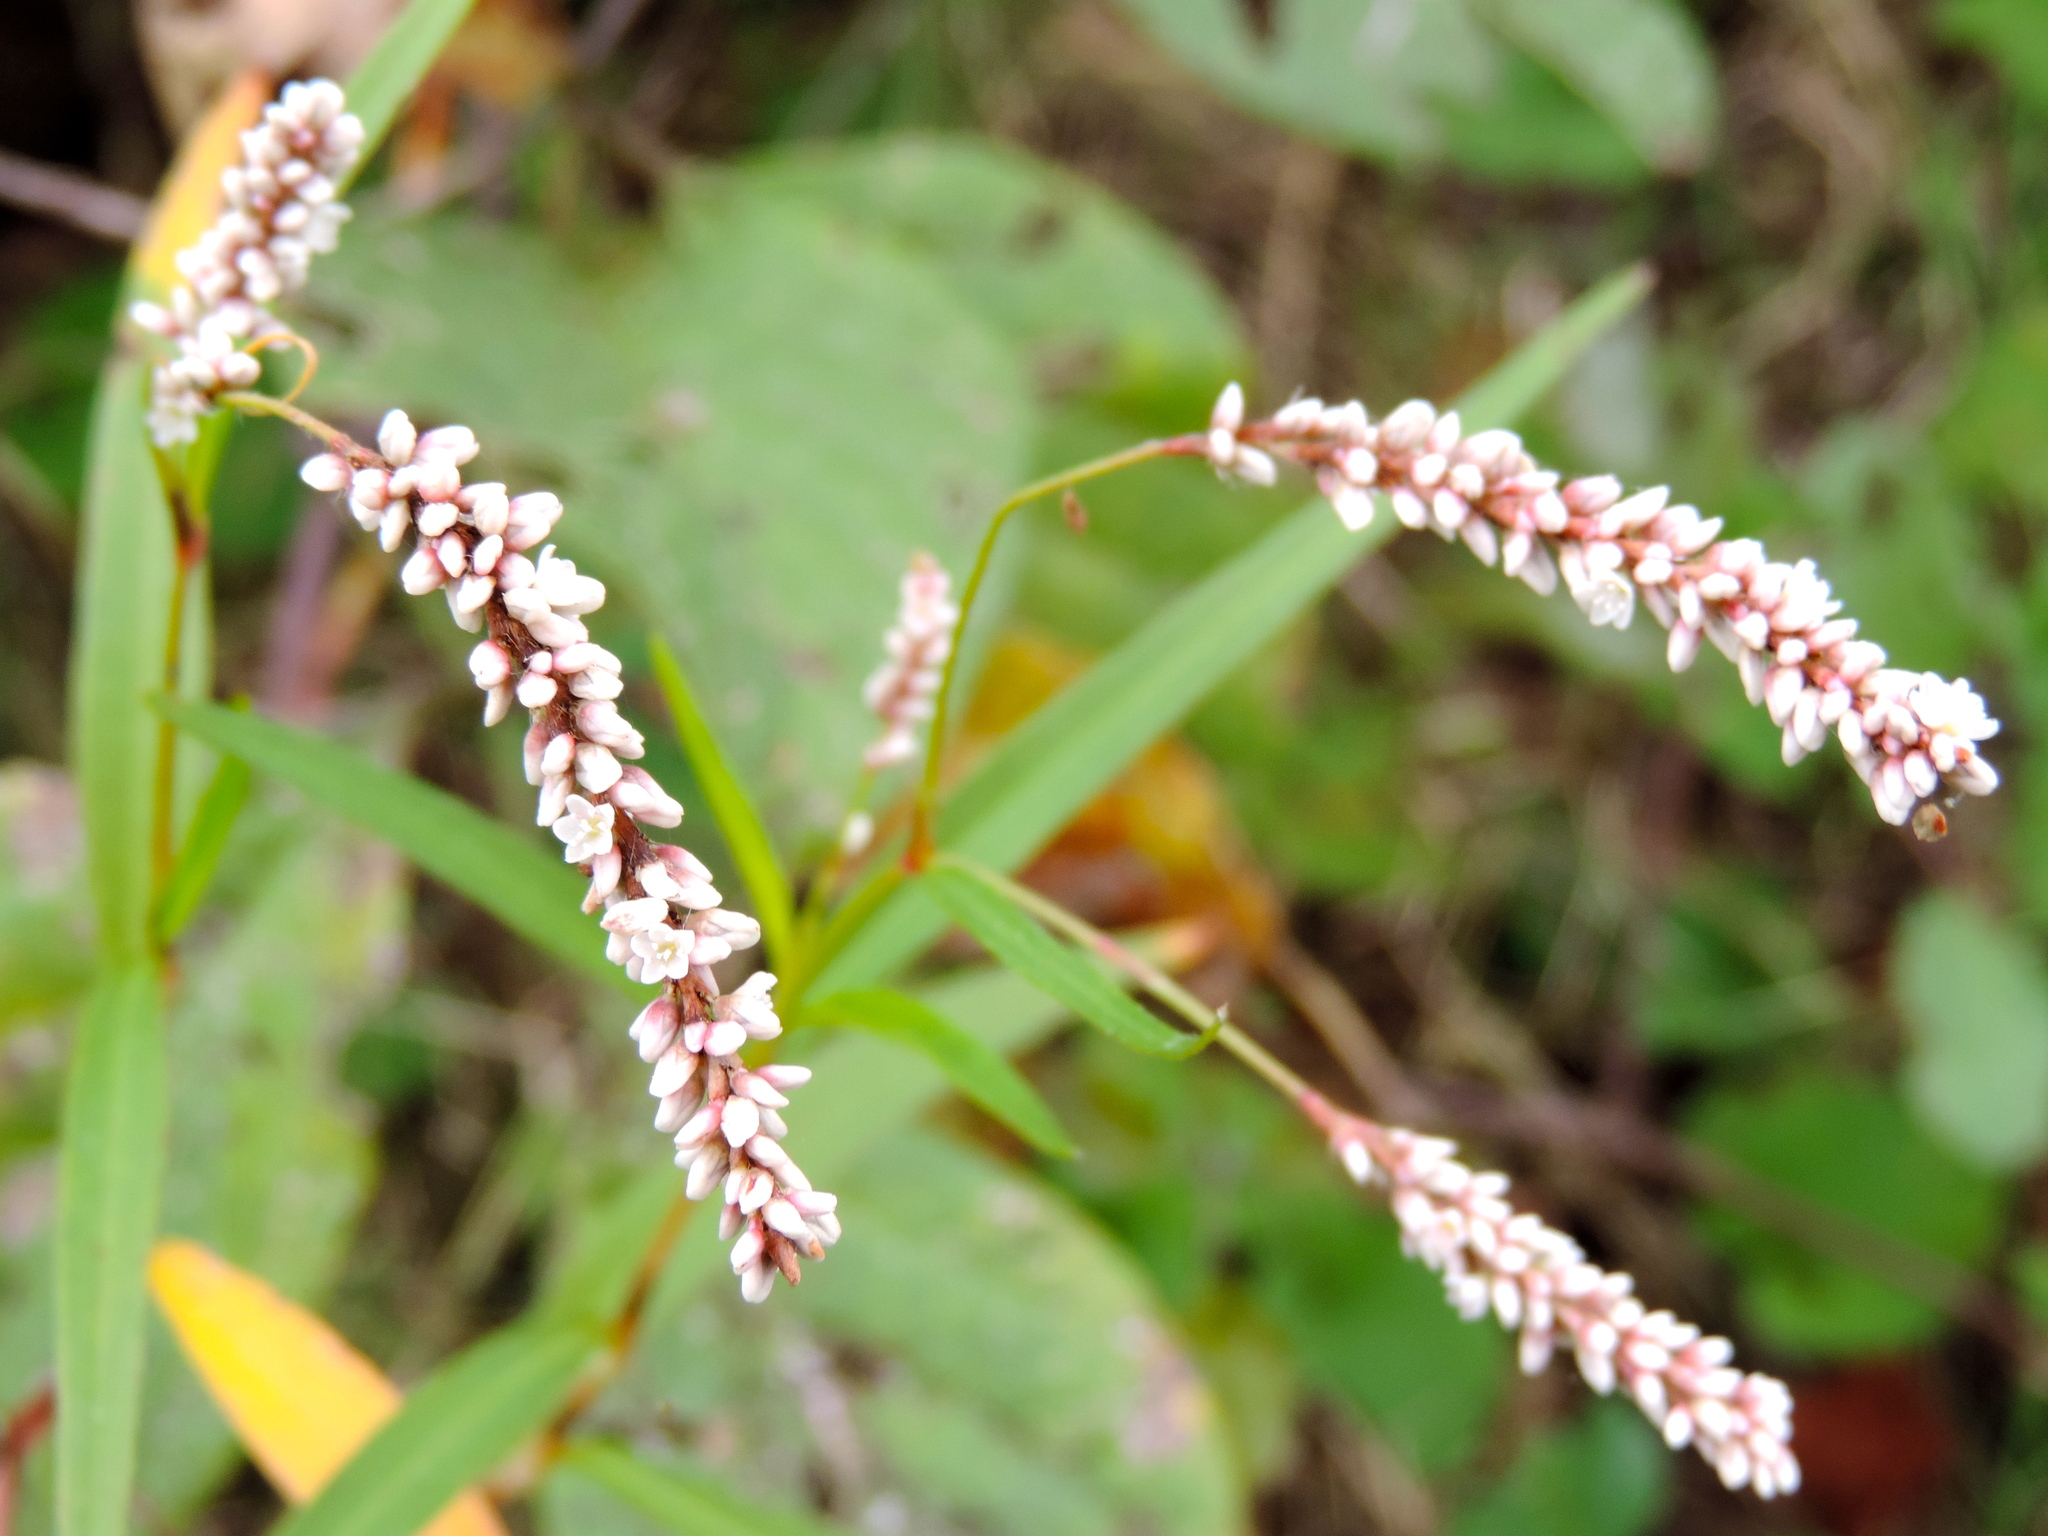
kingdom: Plantae
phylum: Tracheophyta
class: Magnoliopsida
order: Caryophyllales
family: Polygonaceae
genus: Persicaria
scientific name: Persicaria
